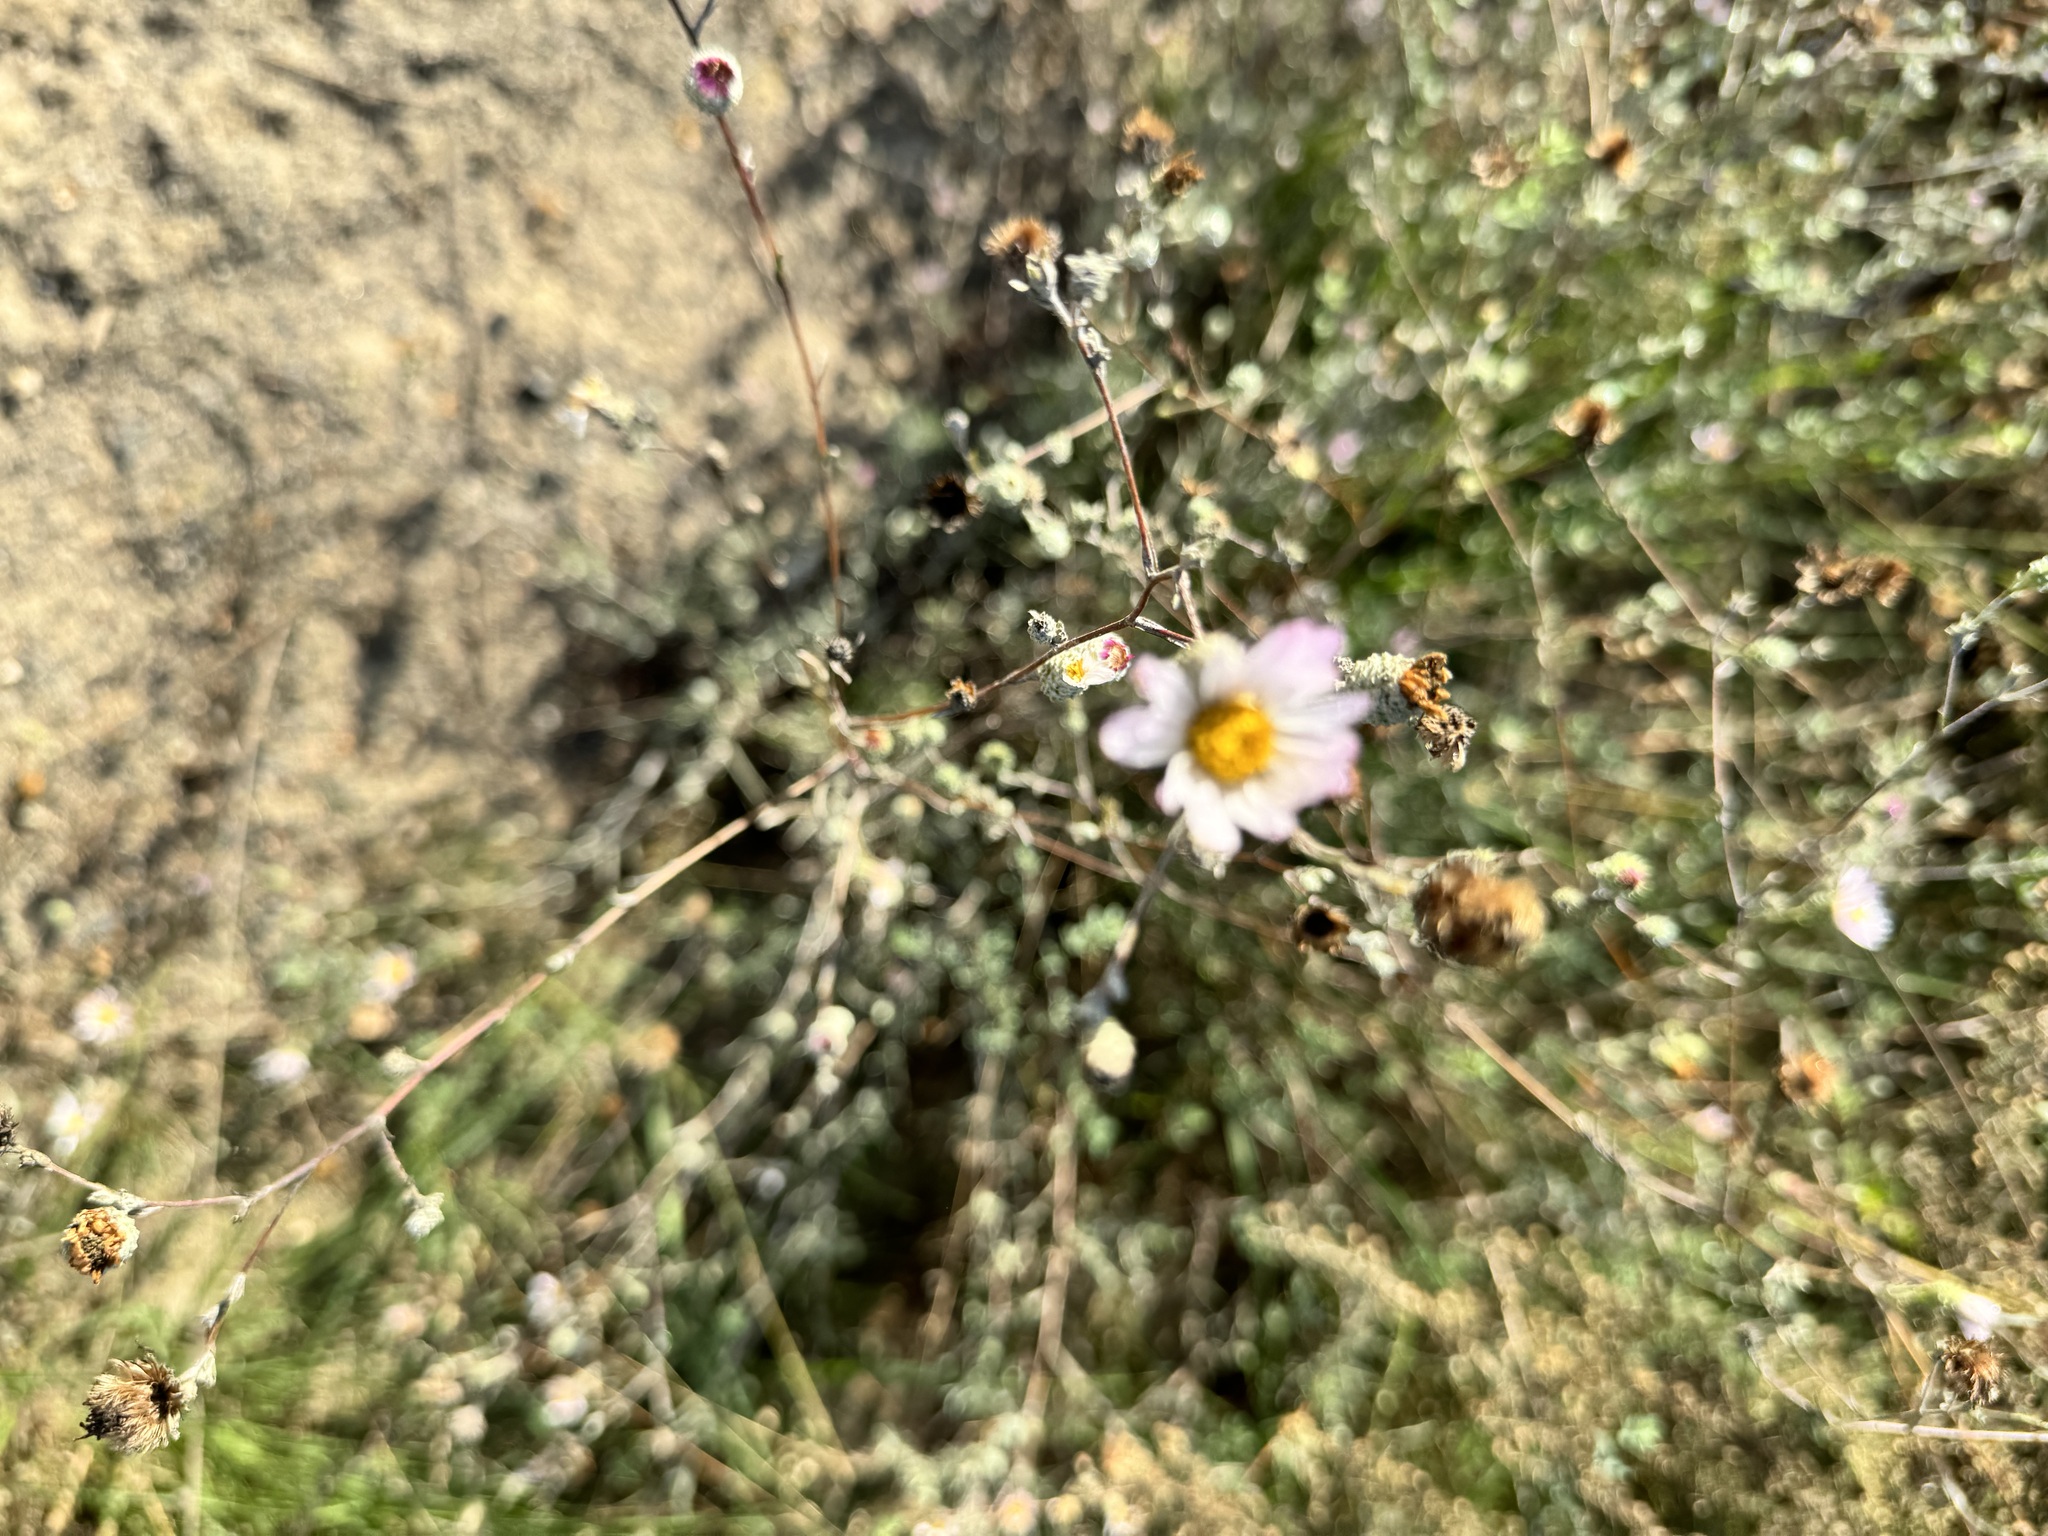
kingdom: Plantae
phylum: Tracheophyta
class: Magnoliopsida
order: Asterales
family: Asteraceae
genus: Corethrogyne
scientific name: Corethrogyne filaginifolia
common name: Sand-aster
